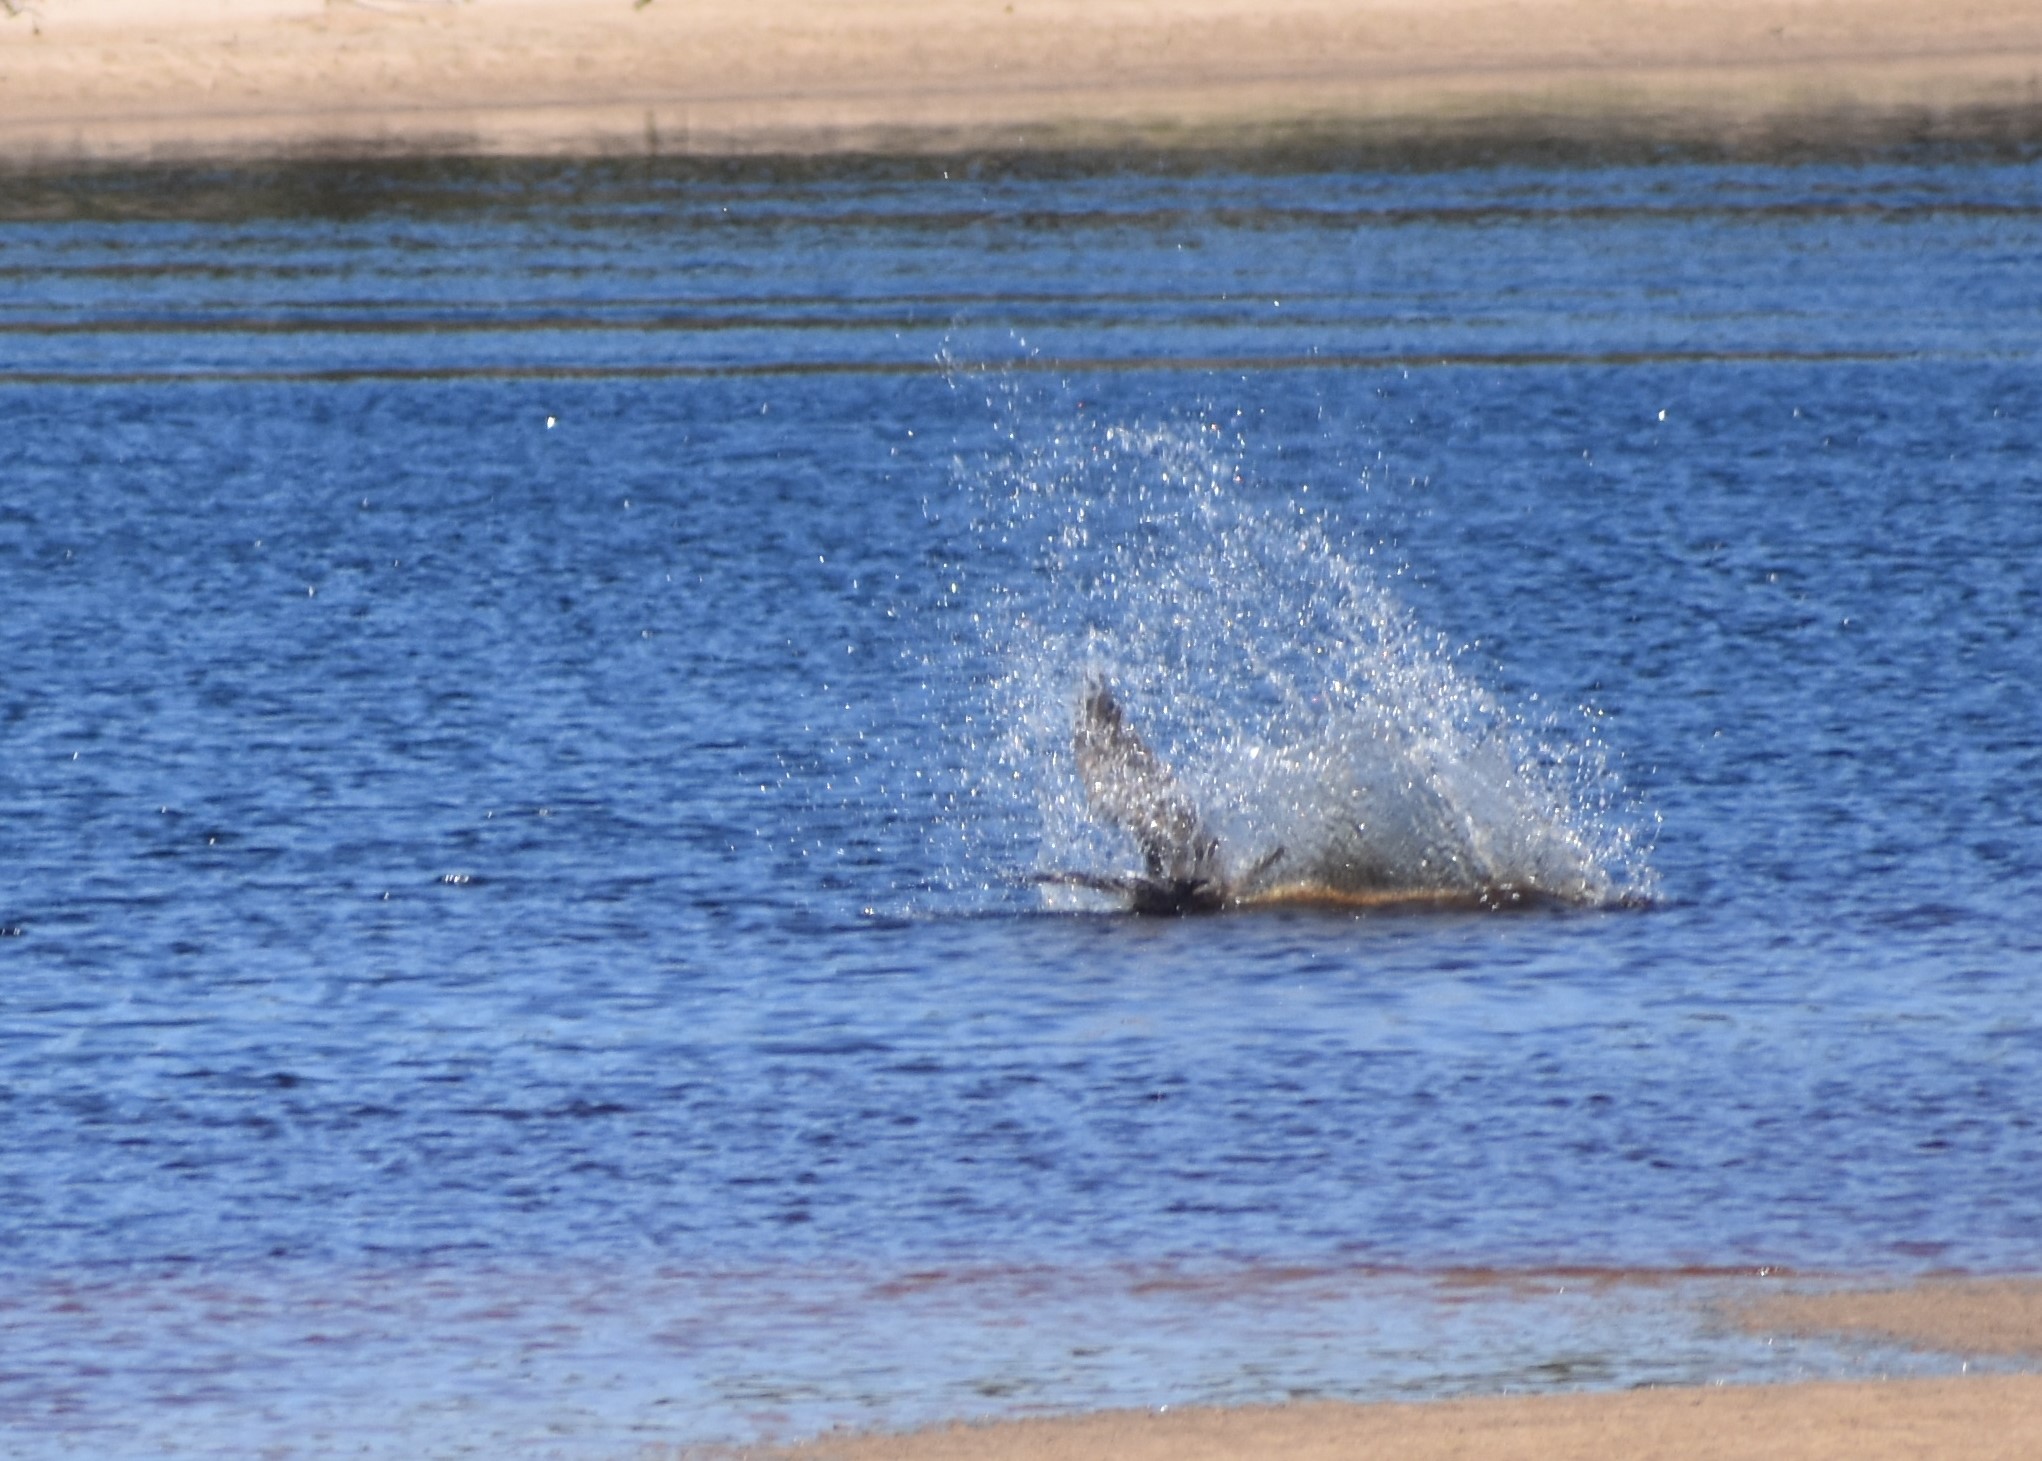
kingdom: Animalia
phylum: Chordata
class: Aves
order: Accipitriformes
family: Pandionidae
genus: Pandion
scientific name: Pandion haliaetus
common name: Osprey
